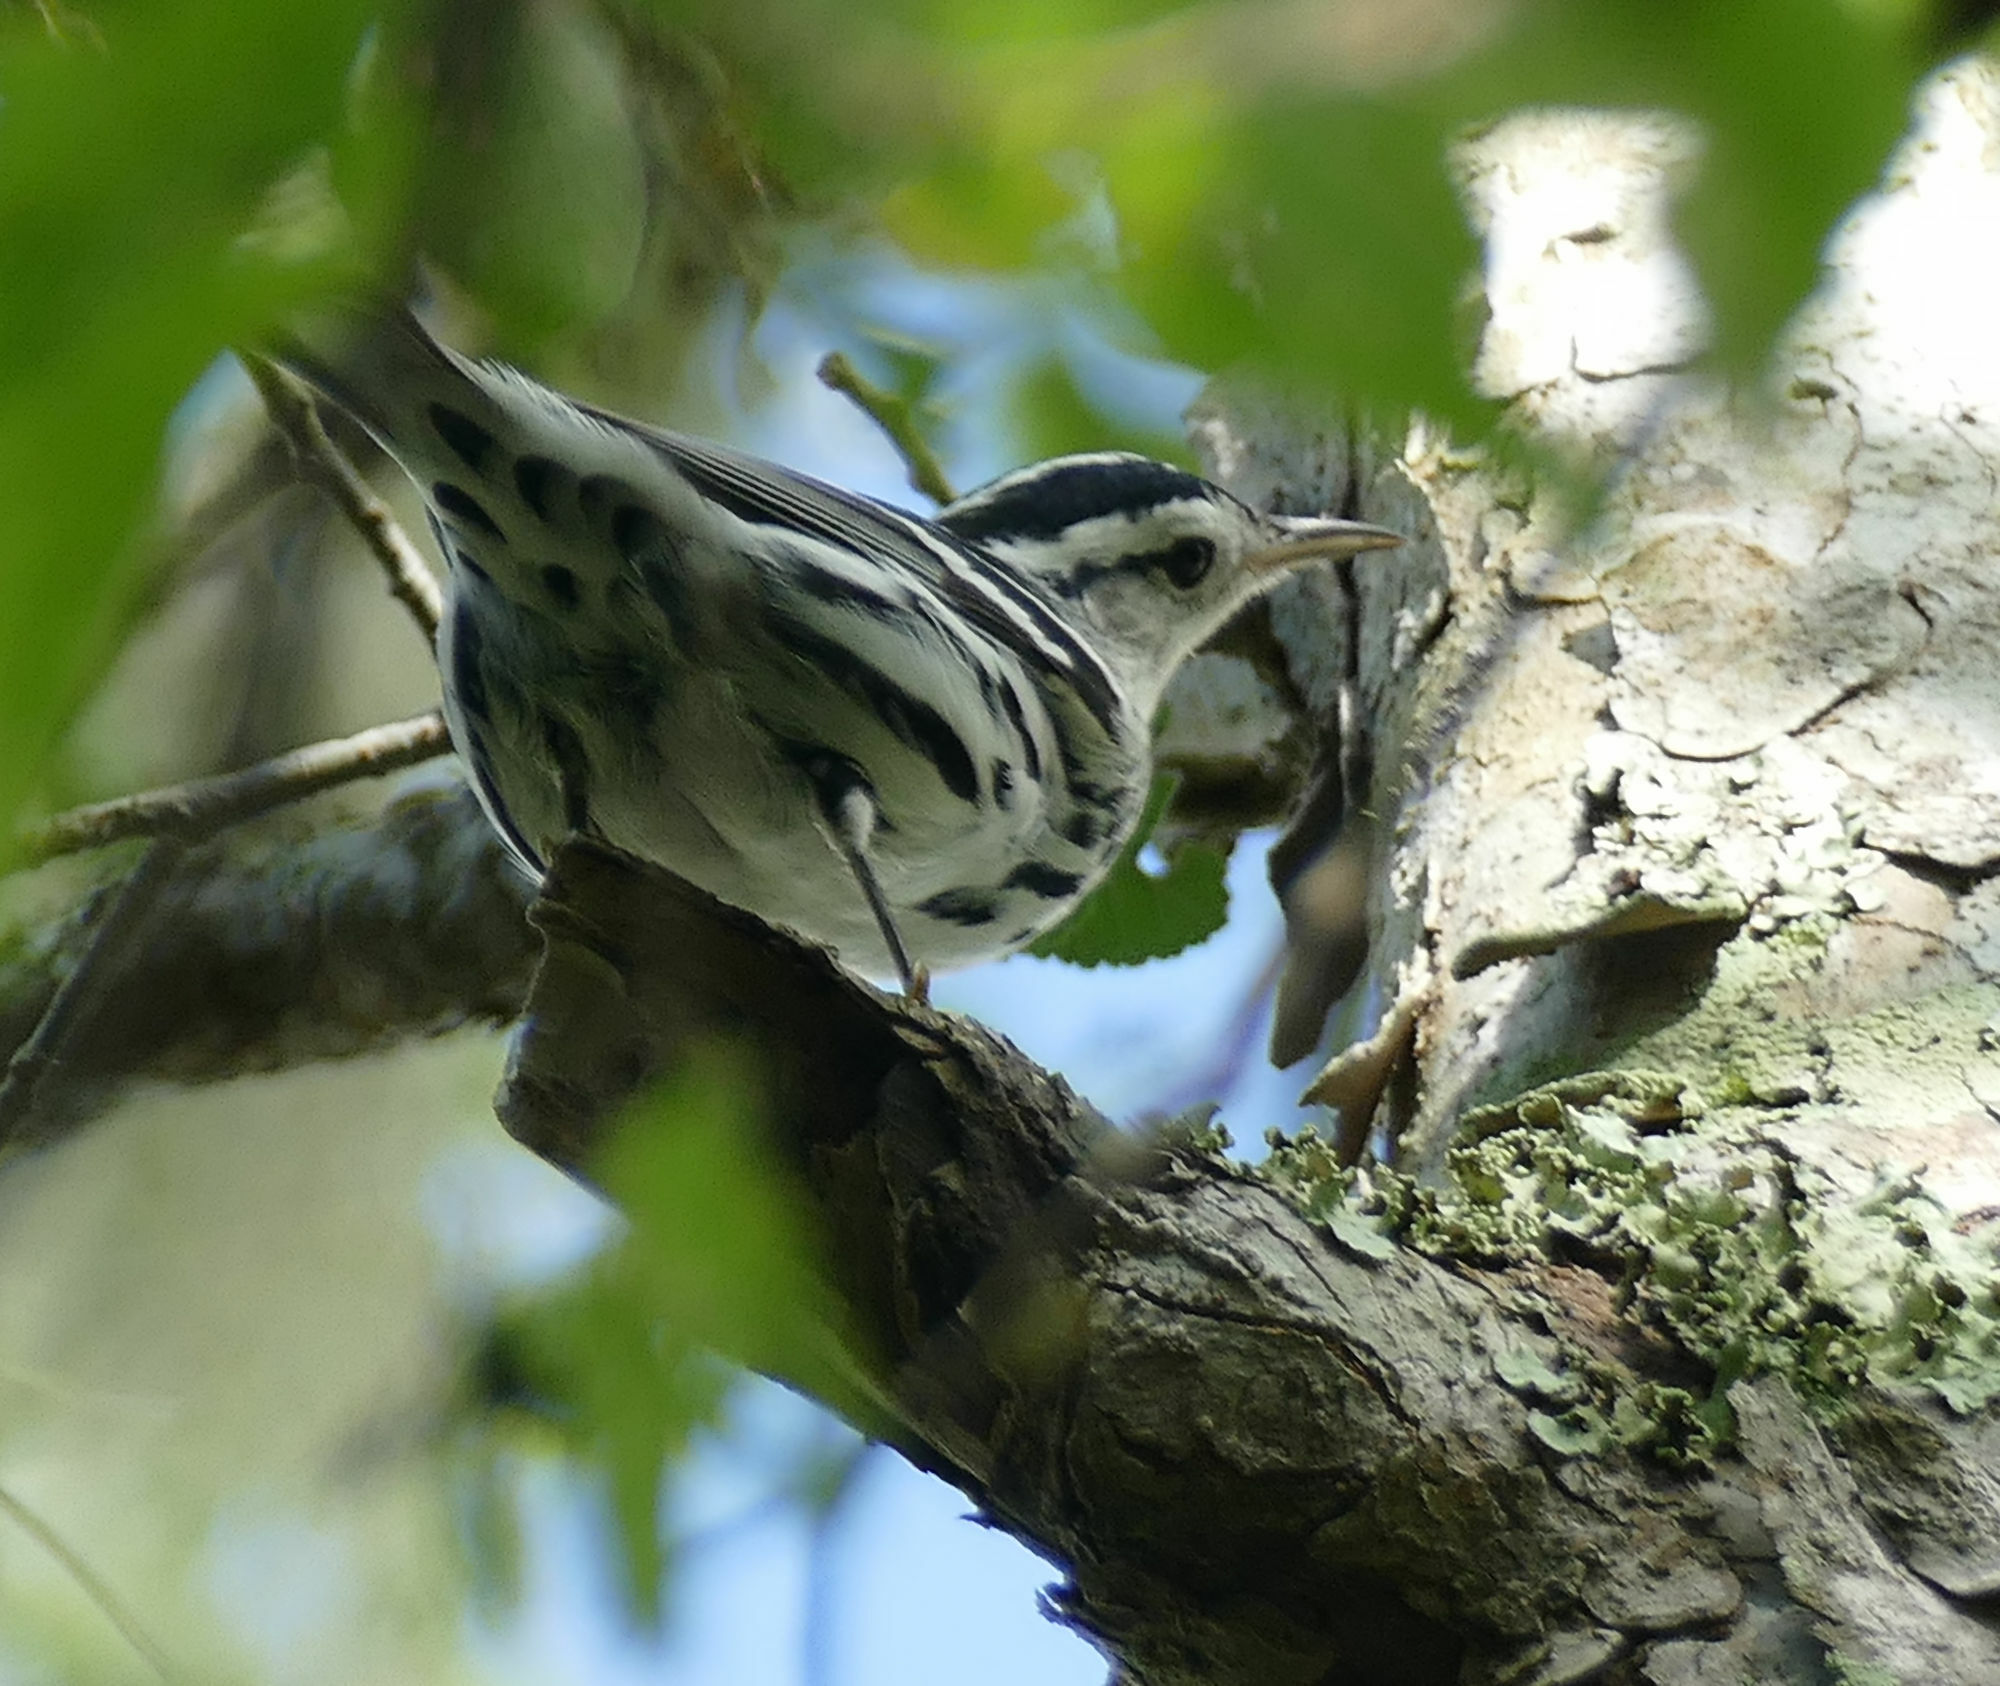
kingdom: Animalia
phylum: Chordata
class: Aves
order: Passeriformes
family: Parulidae
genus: Mniotilta
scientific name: Mniotilta varia
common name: Black-and-white warbler
